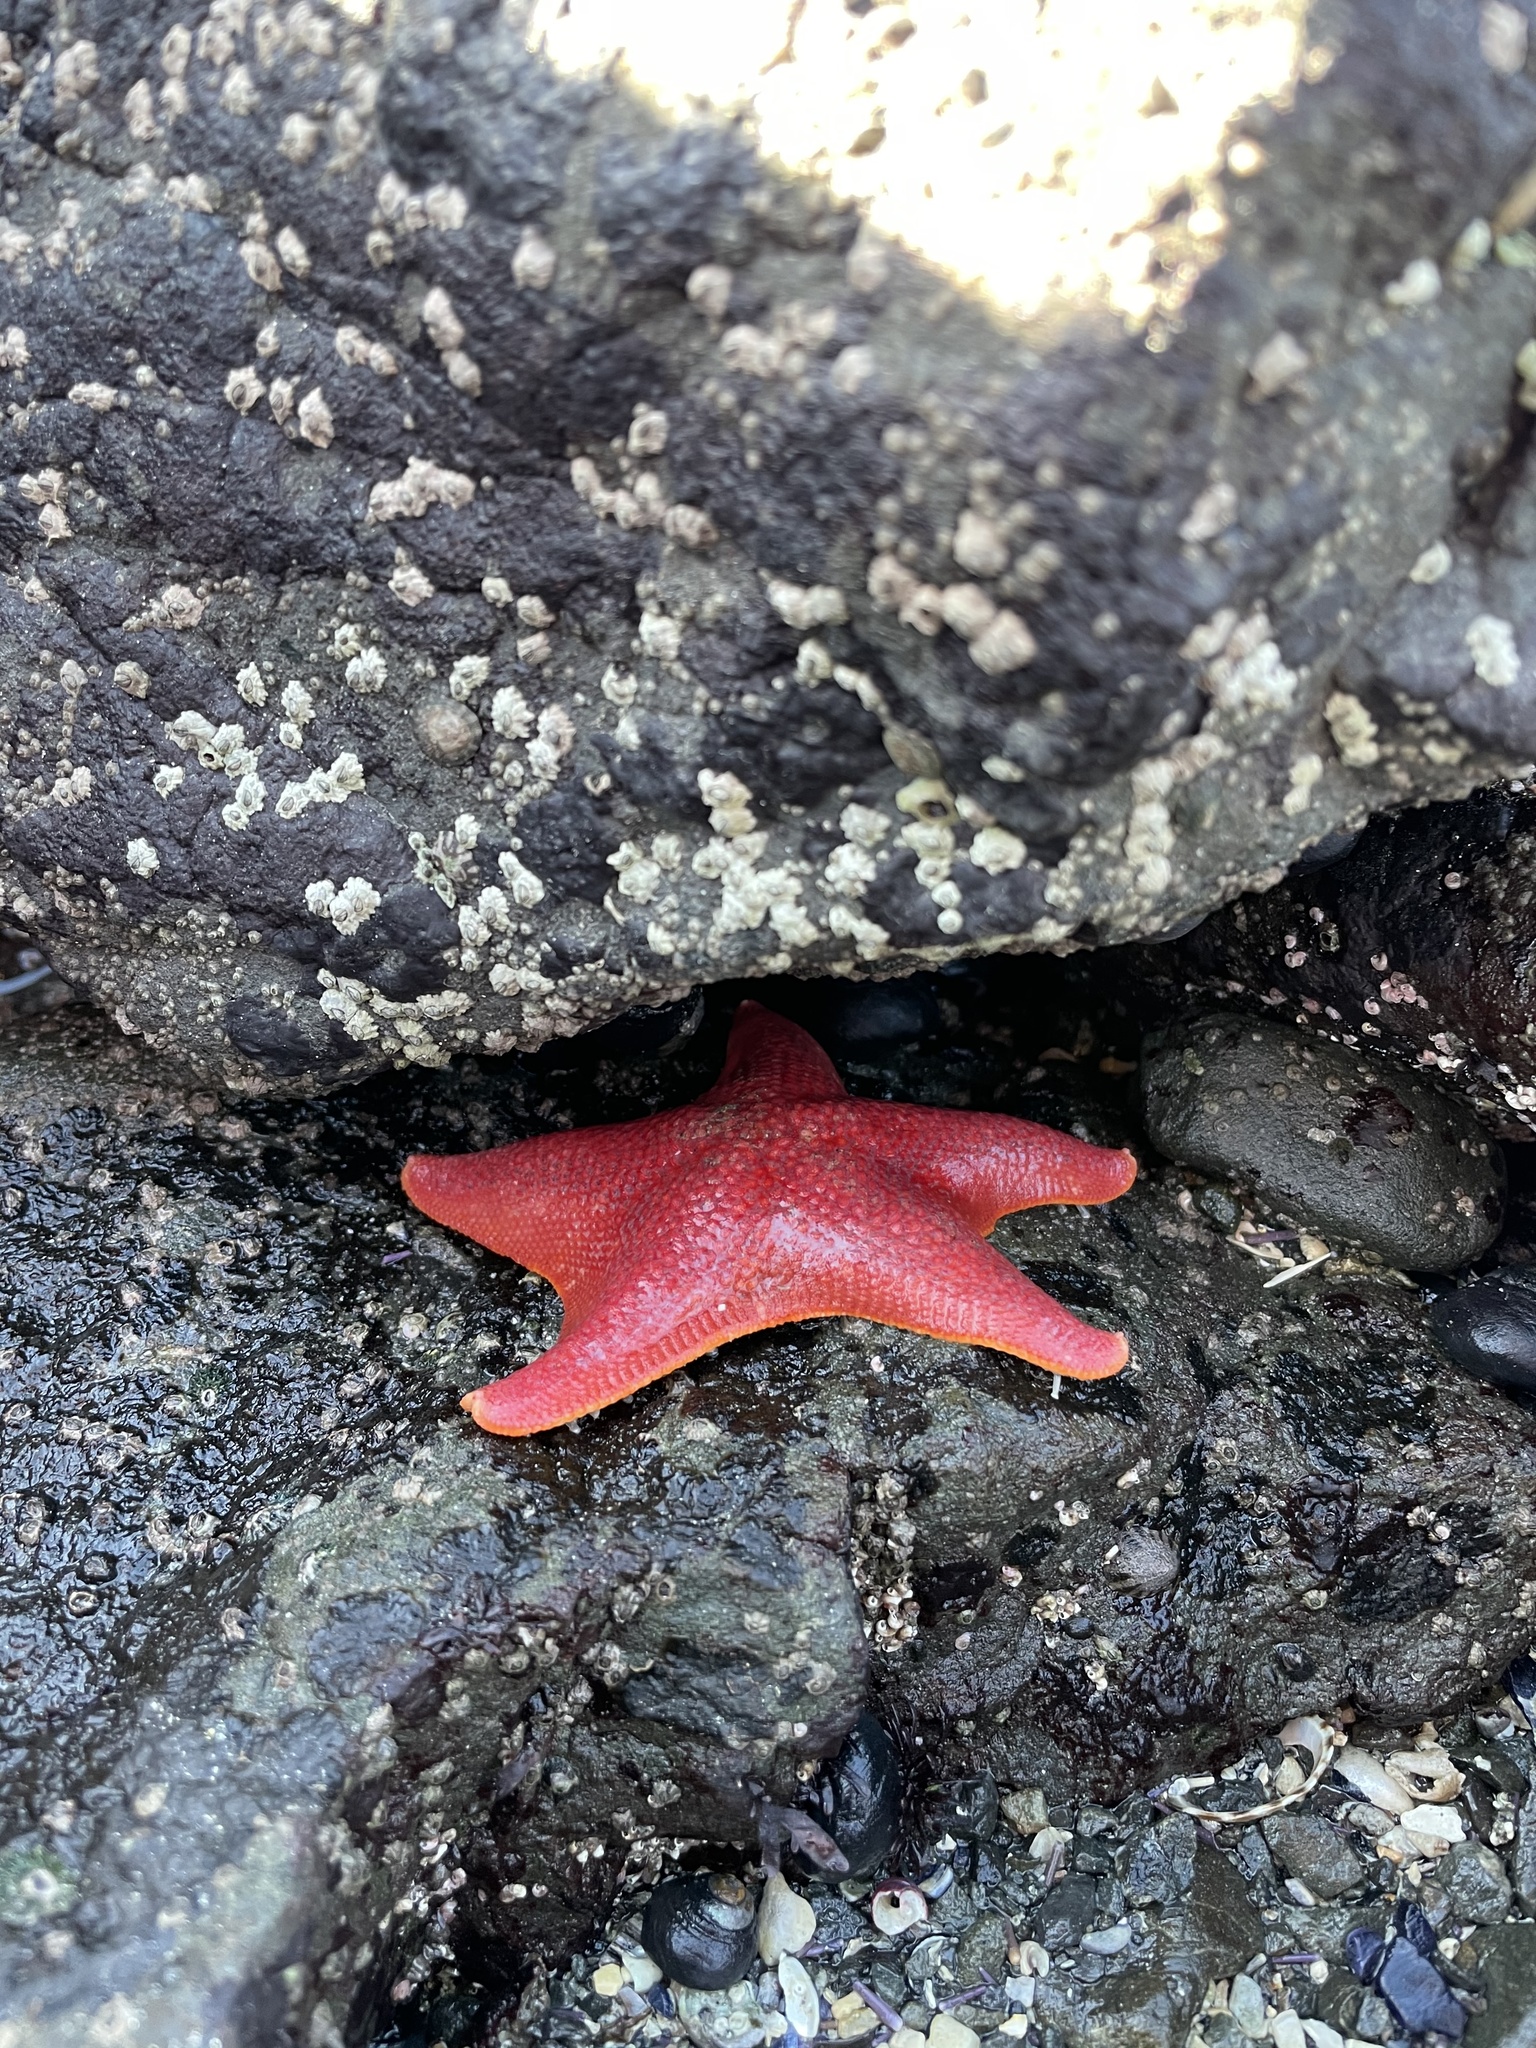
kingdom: Animalia
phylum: Echinodermata
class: Asteroidea
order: Valvatida
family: Asterinidae
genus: Patiria
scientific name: Patiria miniata
